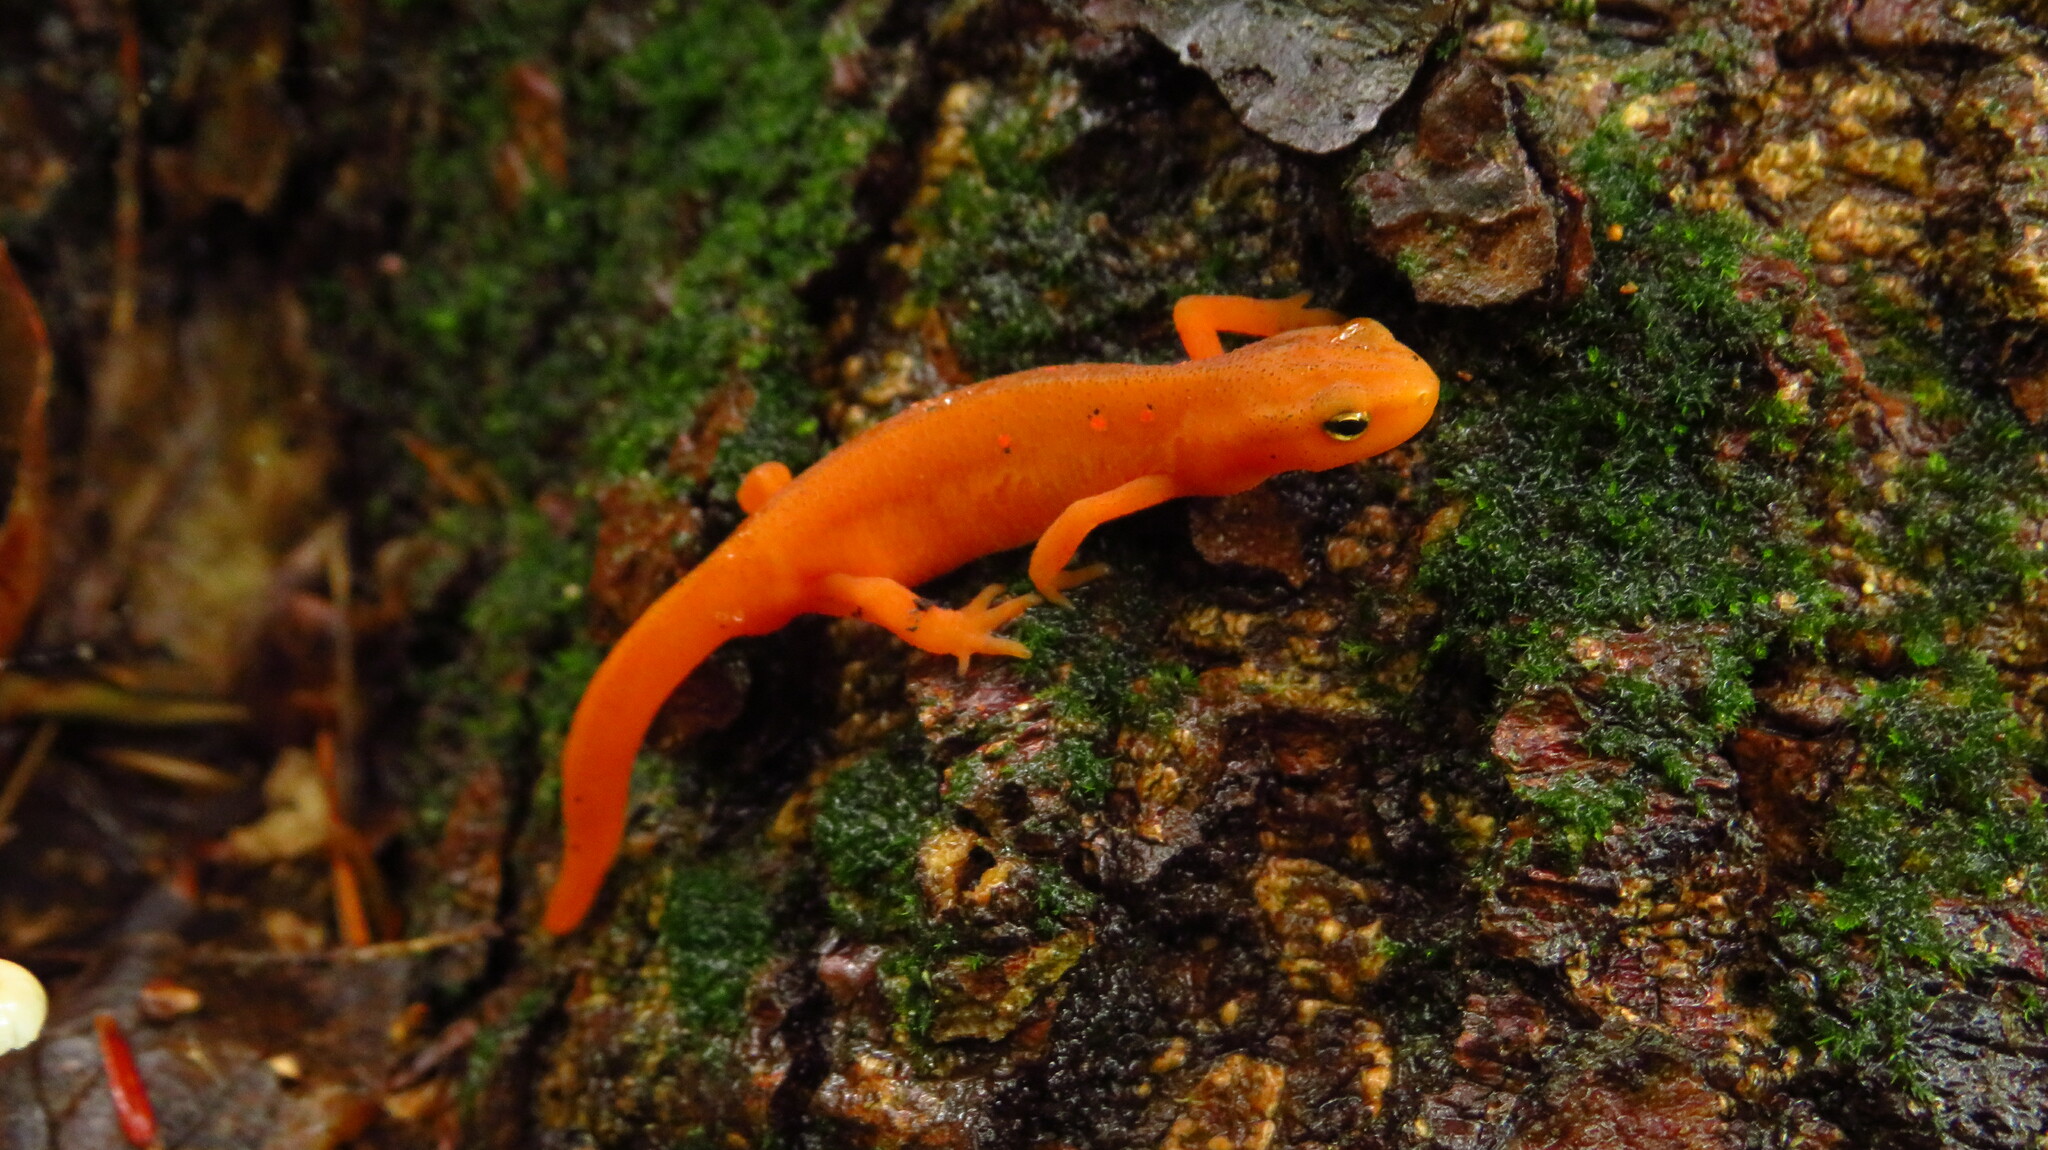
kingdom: Animalia
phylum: Chordata
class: Amphibia
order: Caudata
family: Salamandridae
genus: Notophthalmus
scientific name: Notophthalmus viridescens
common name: Eastern newt
